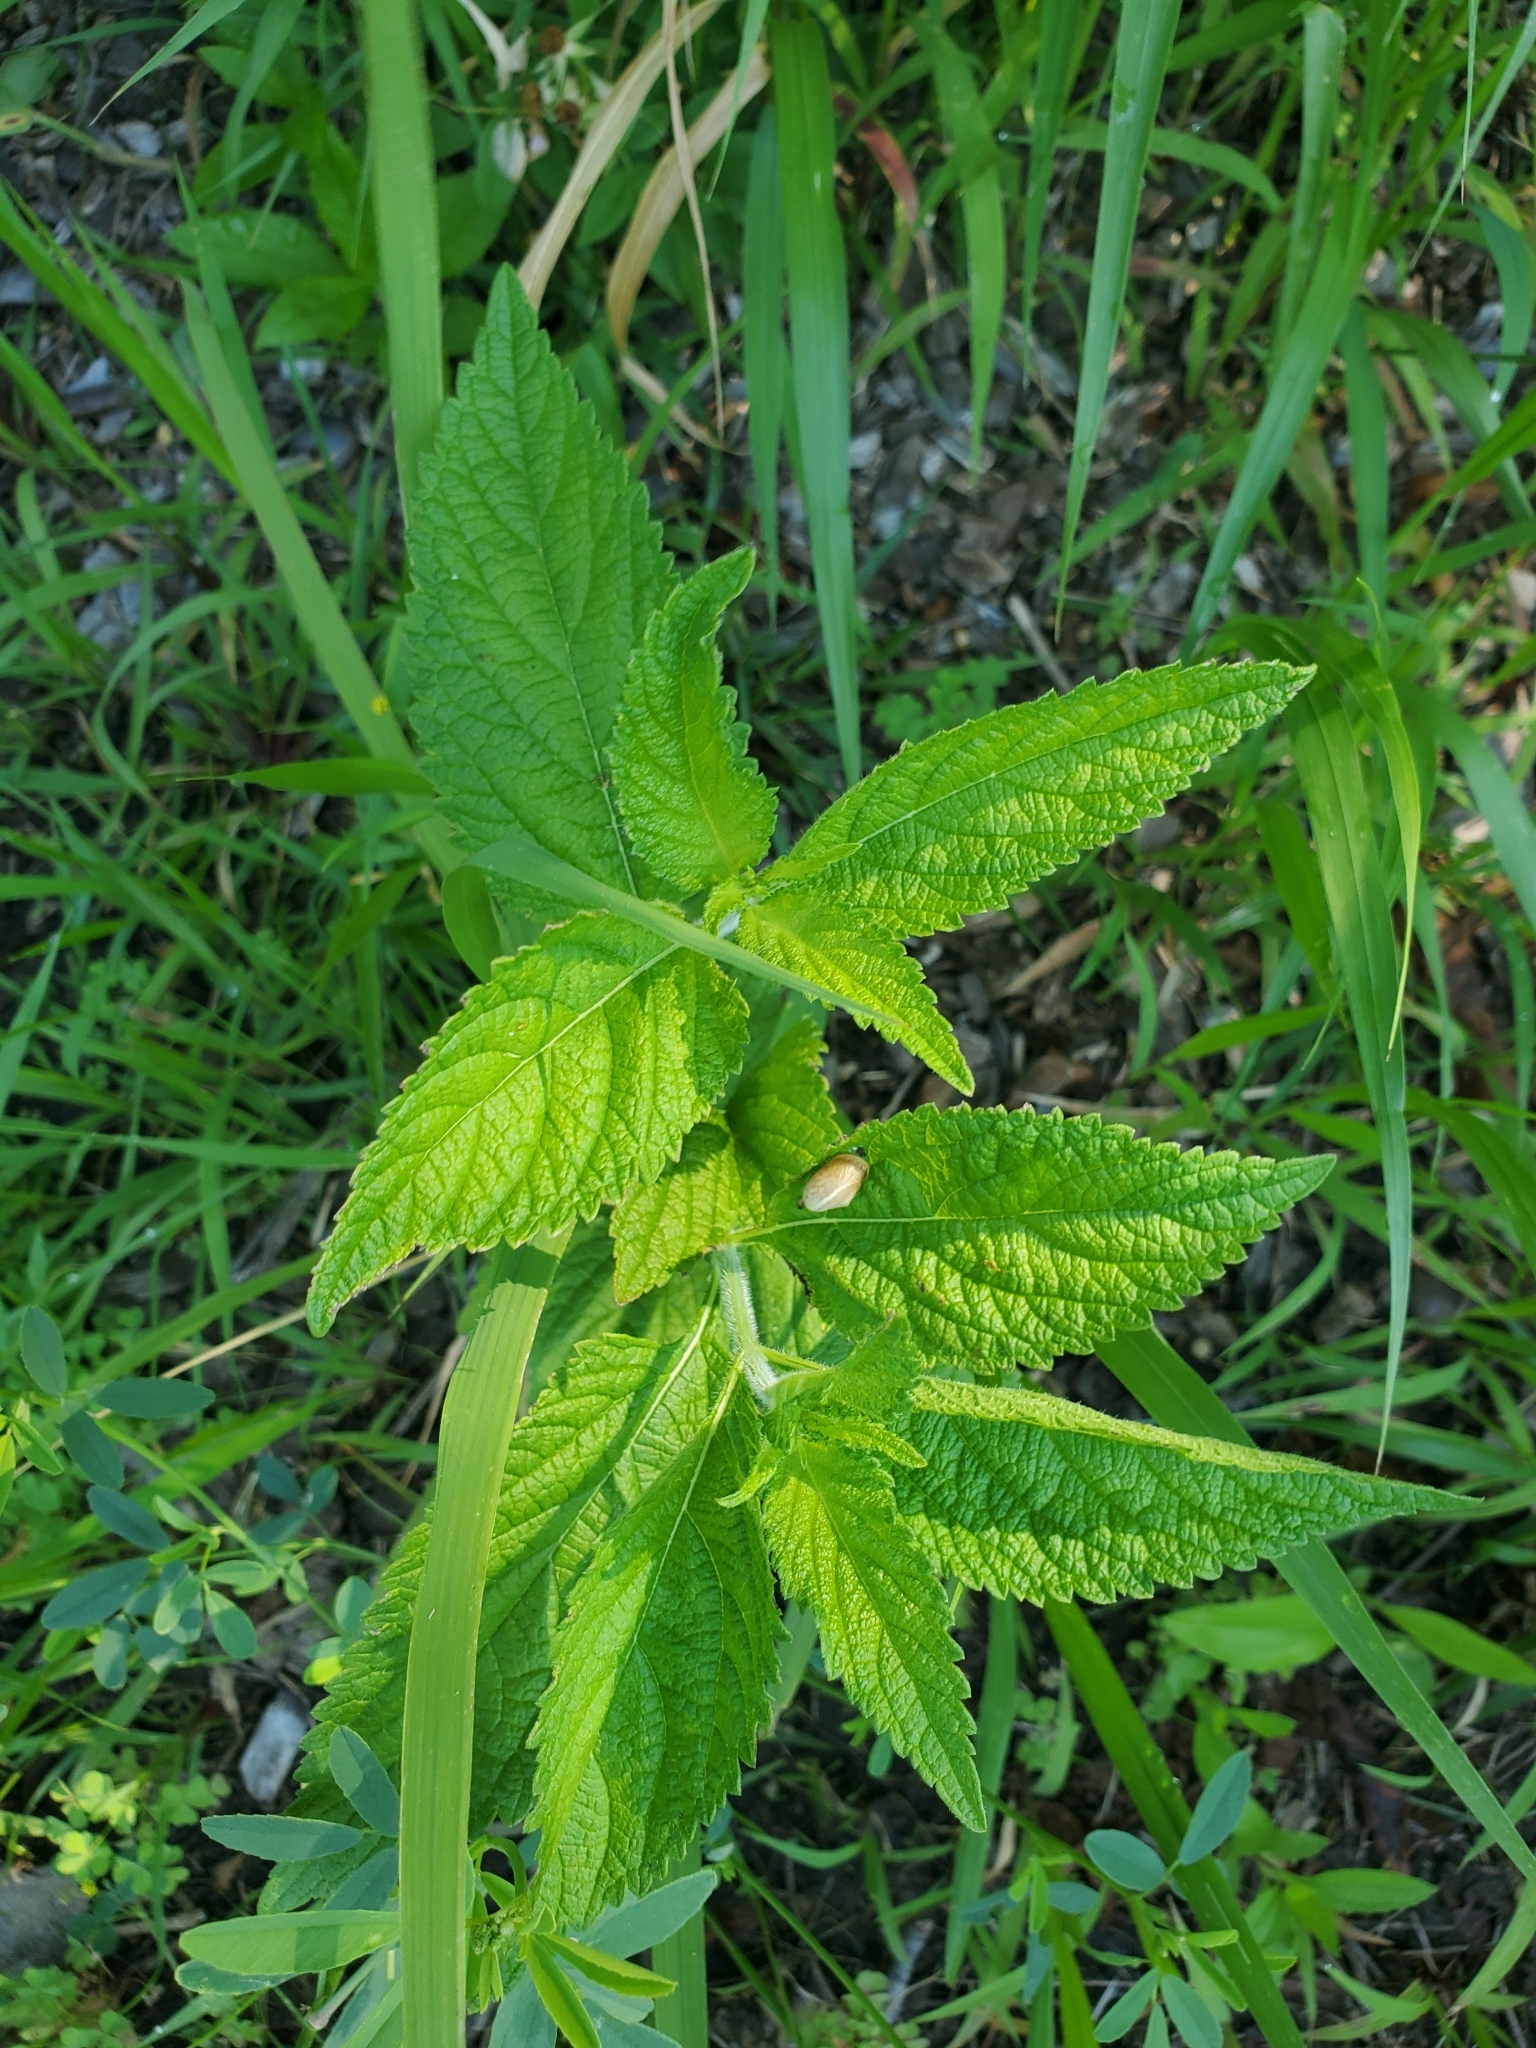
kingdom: Plantae
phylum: Tracheophyta
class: Magnoliopsida
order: Lamiales
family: Verbenaceae
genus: Verbena
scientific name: Verbena urticifolia
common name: Nettle-leaved vervain
